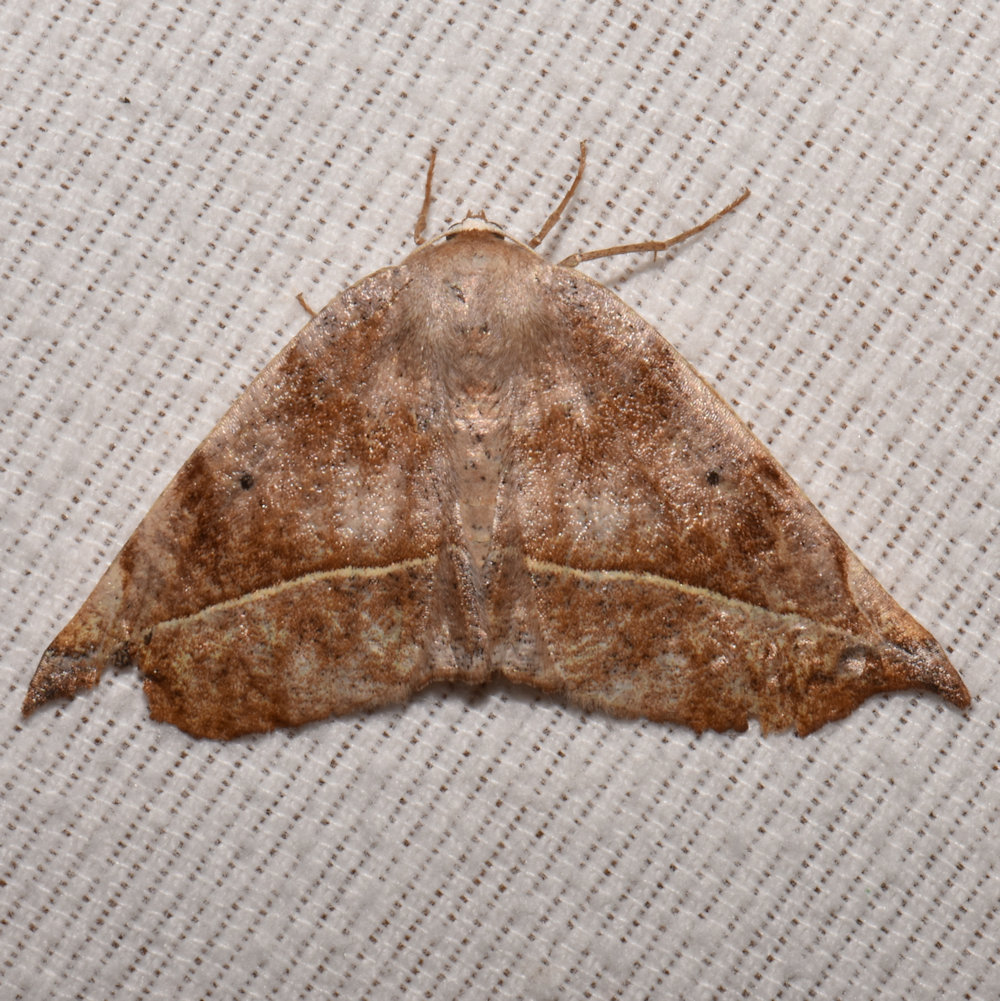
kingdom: Animalia
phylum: Arthropoda
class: Insecta
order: Lepidoptera
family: Geometridae
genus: Eutrapela
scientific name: Eutrapela clemataria
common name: Curved-toothed geometer
